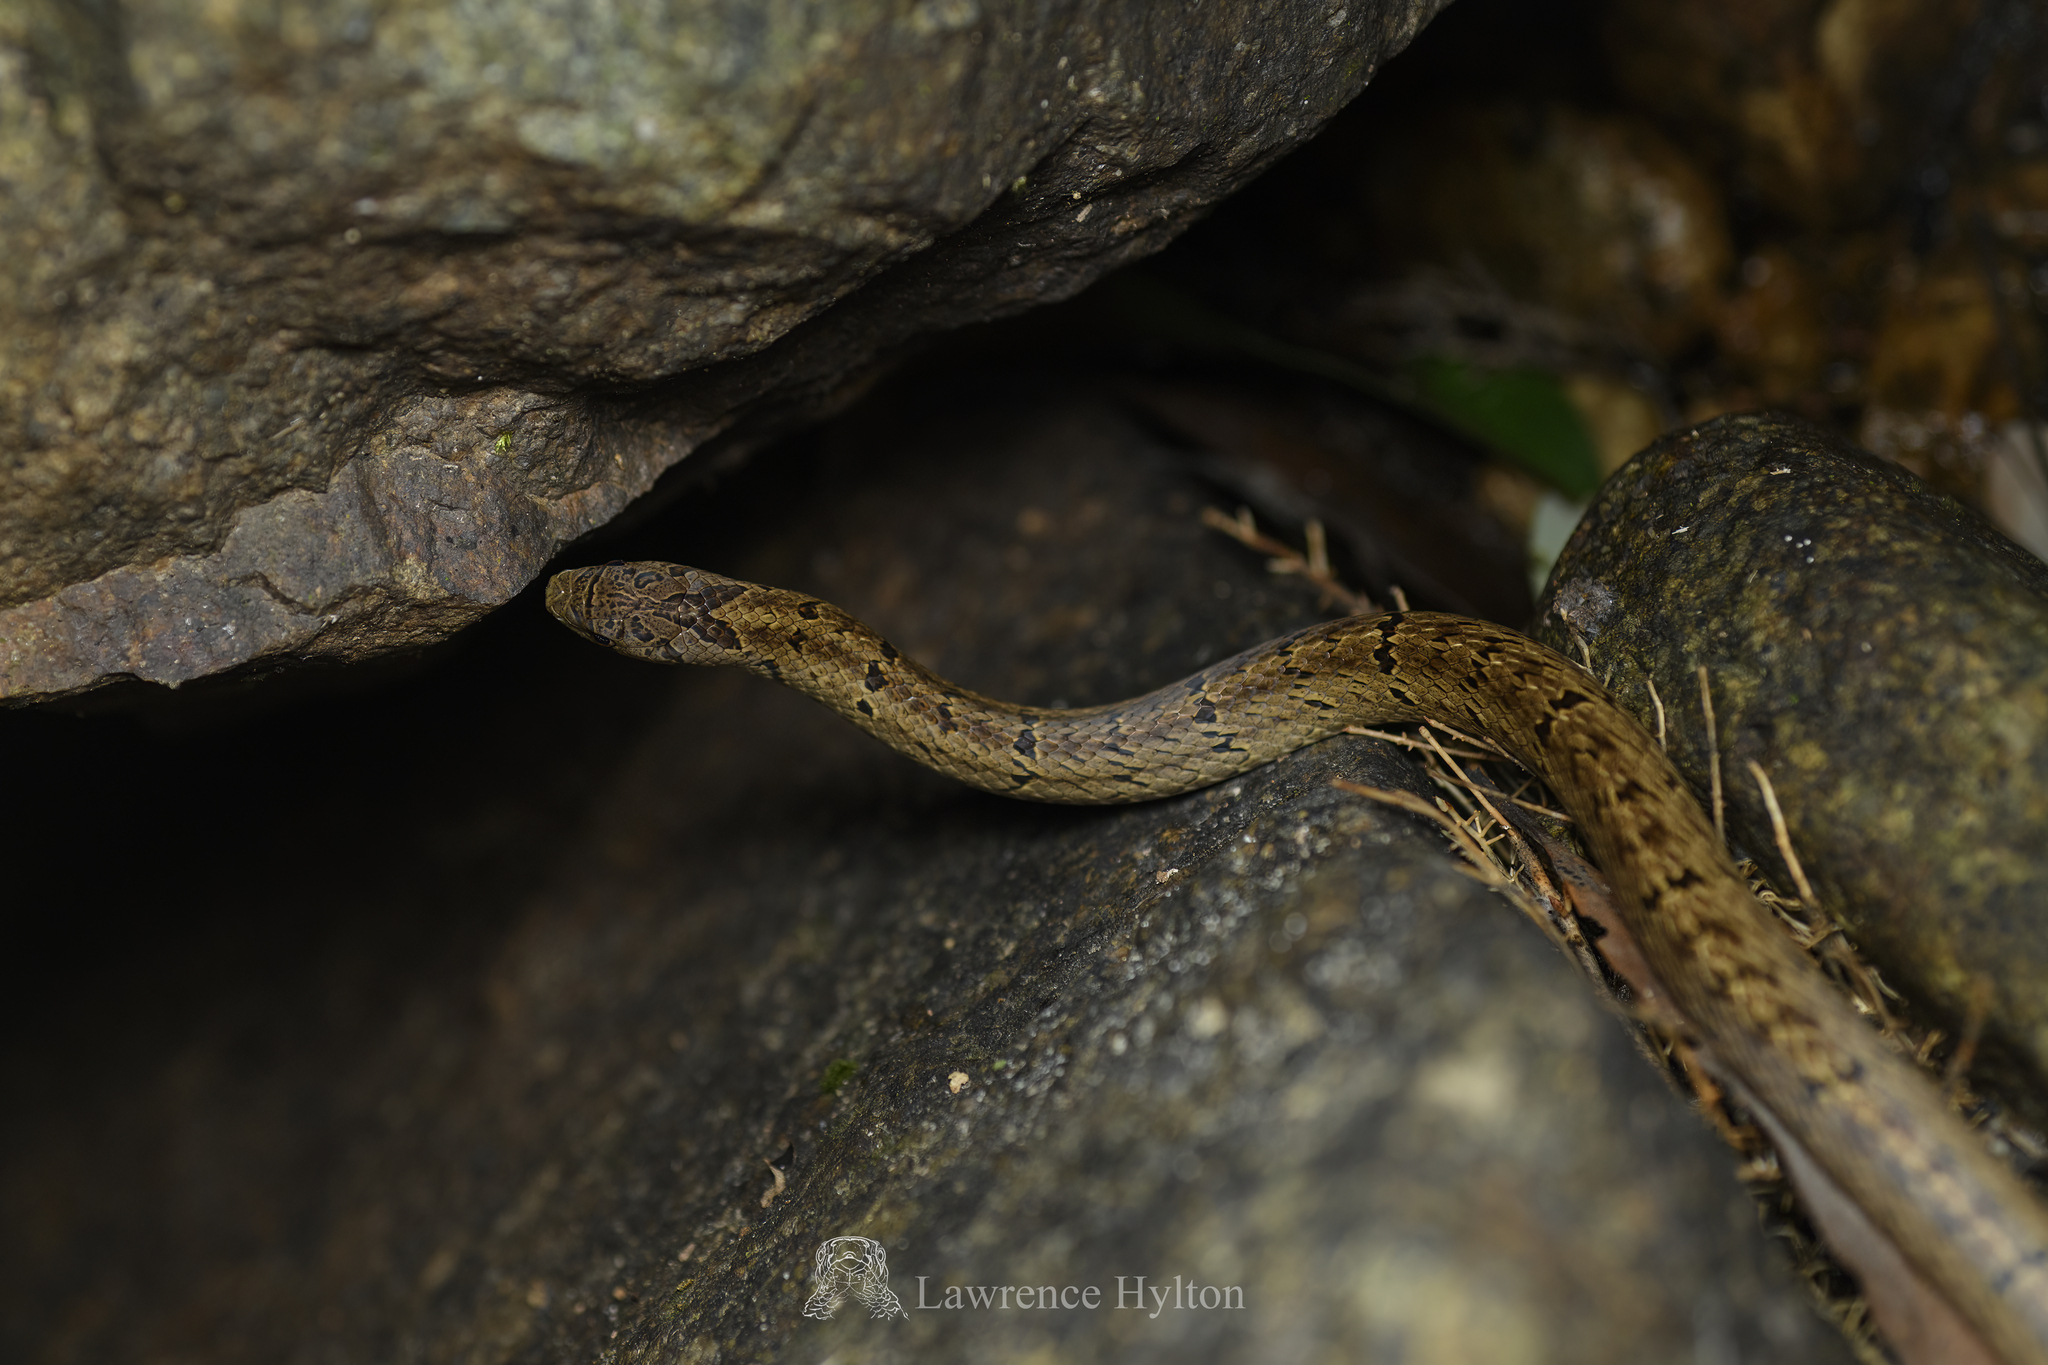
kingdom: Animalia
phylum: Chordata
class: Squamata
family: Colubridae
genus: Oligodon
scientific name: Oligodon formosanus
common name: Formosa kukri snake
